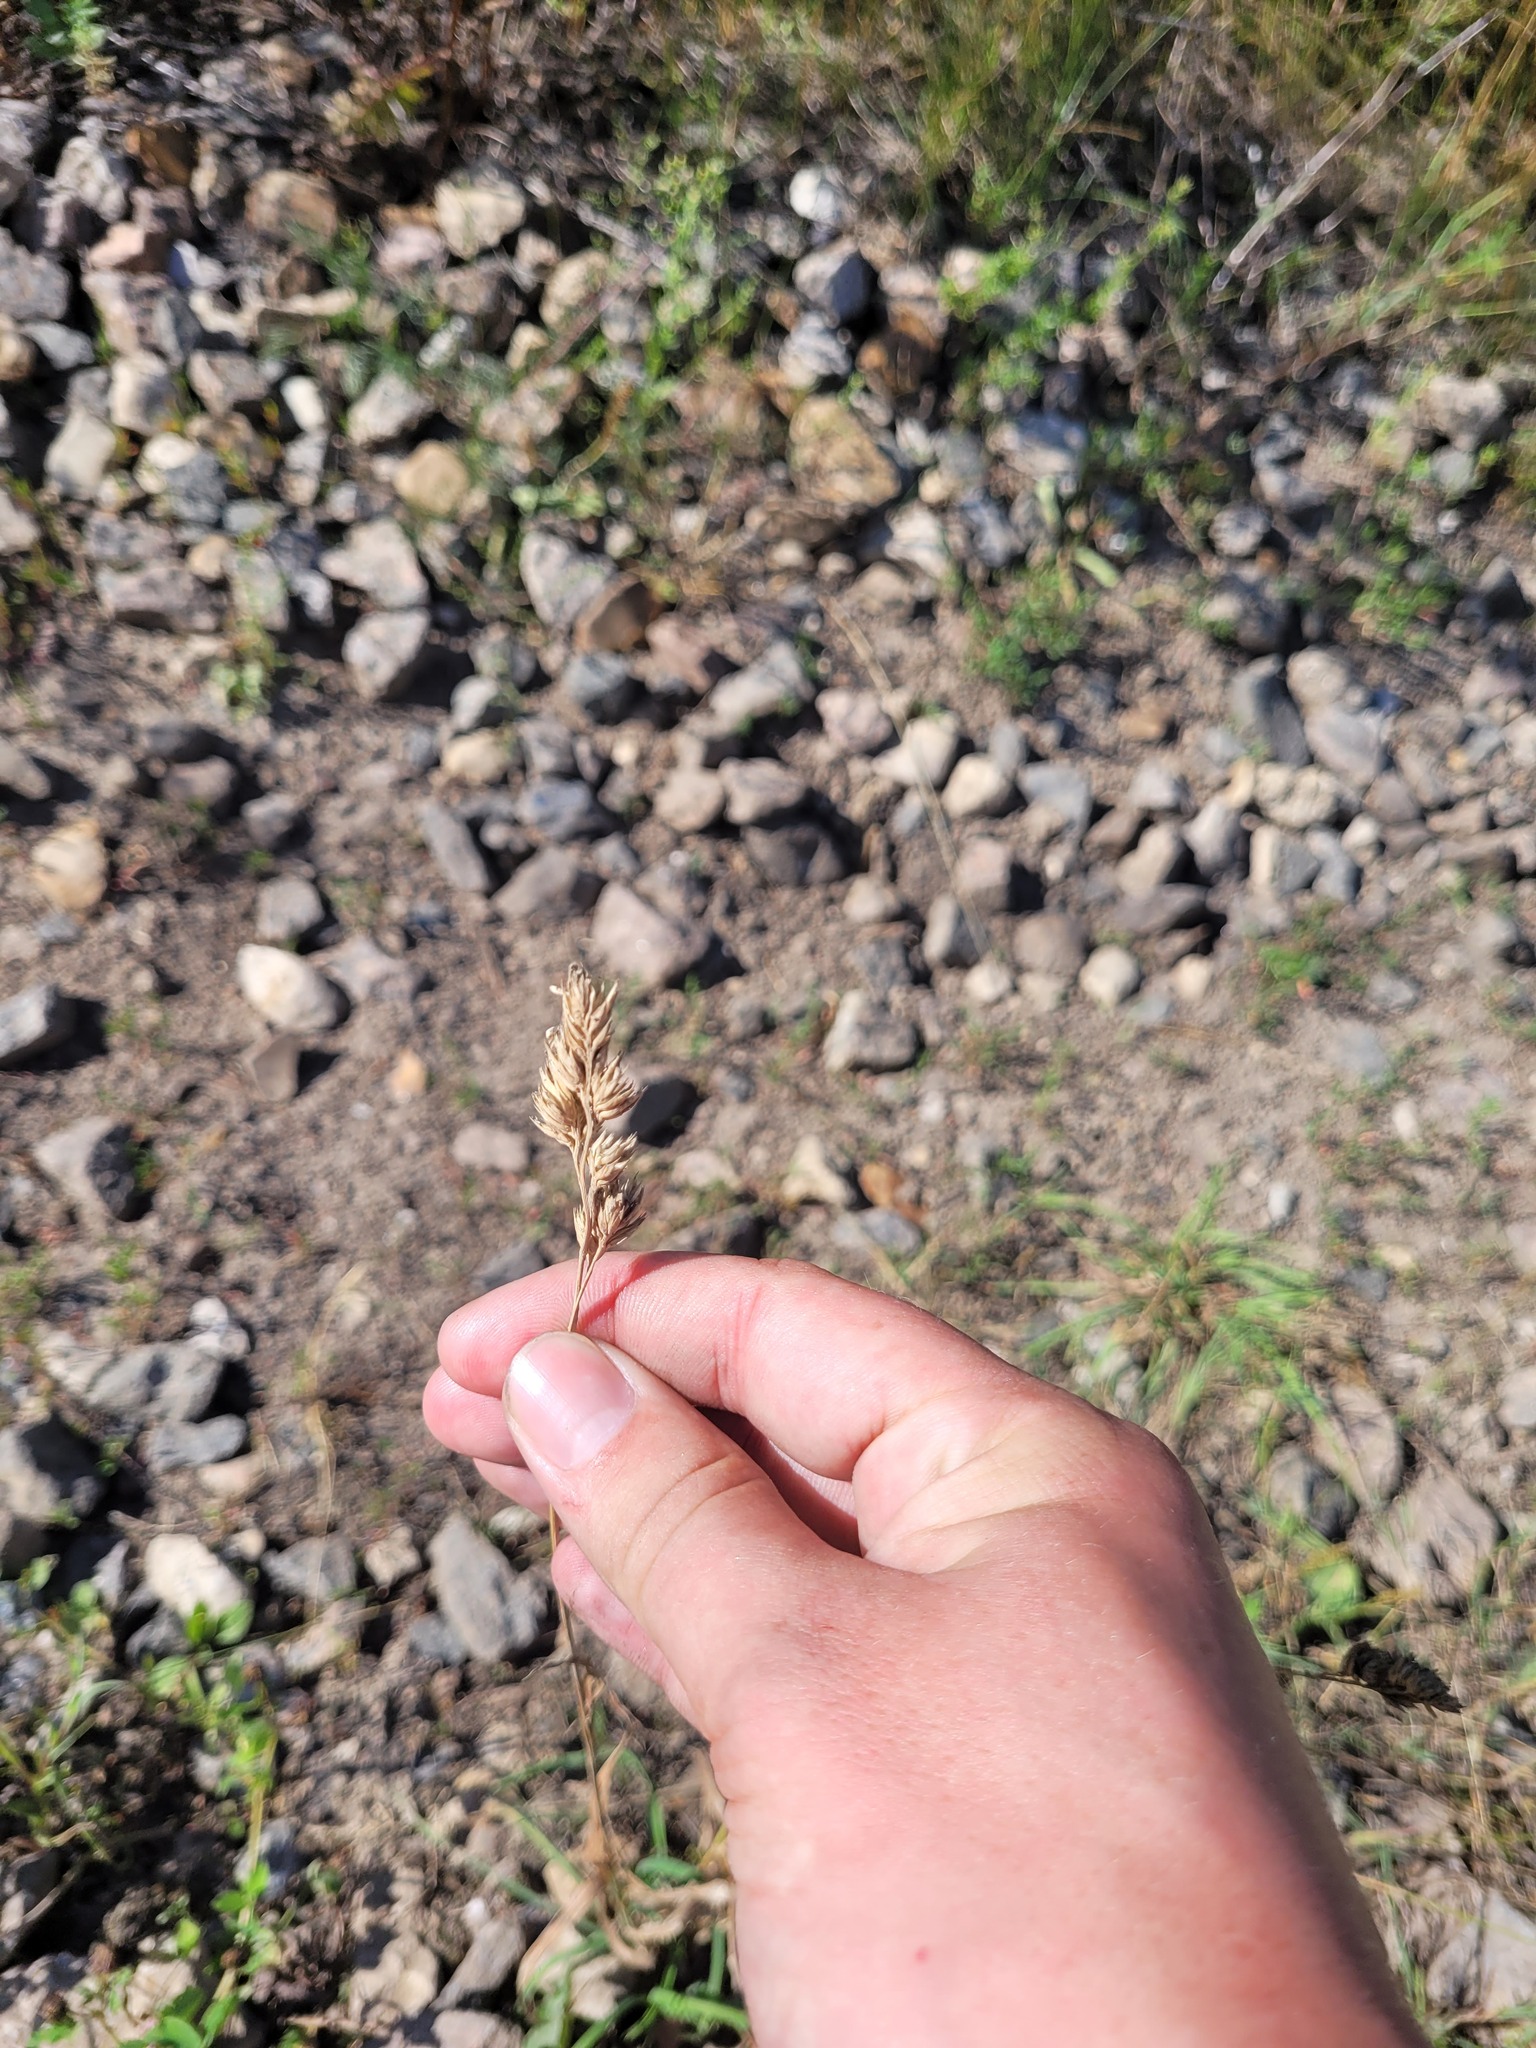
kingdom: Plantae
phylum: Tracheophyta
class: Liliopsida
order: Poales
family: Poaceae
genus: Dactylis
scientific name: Dactylis glomerata
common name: Orchardgrass
